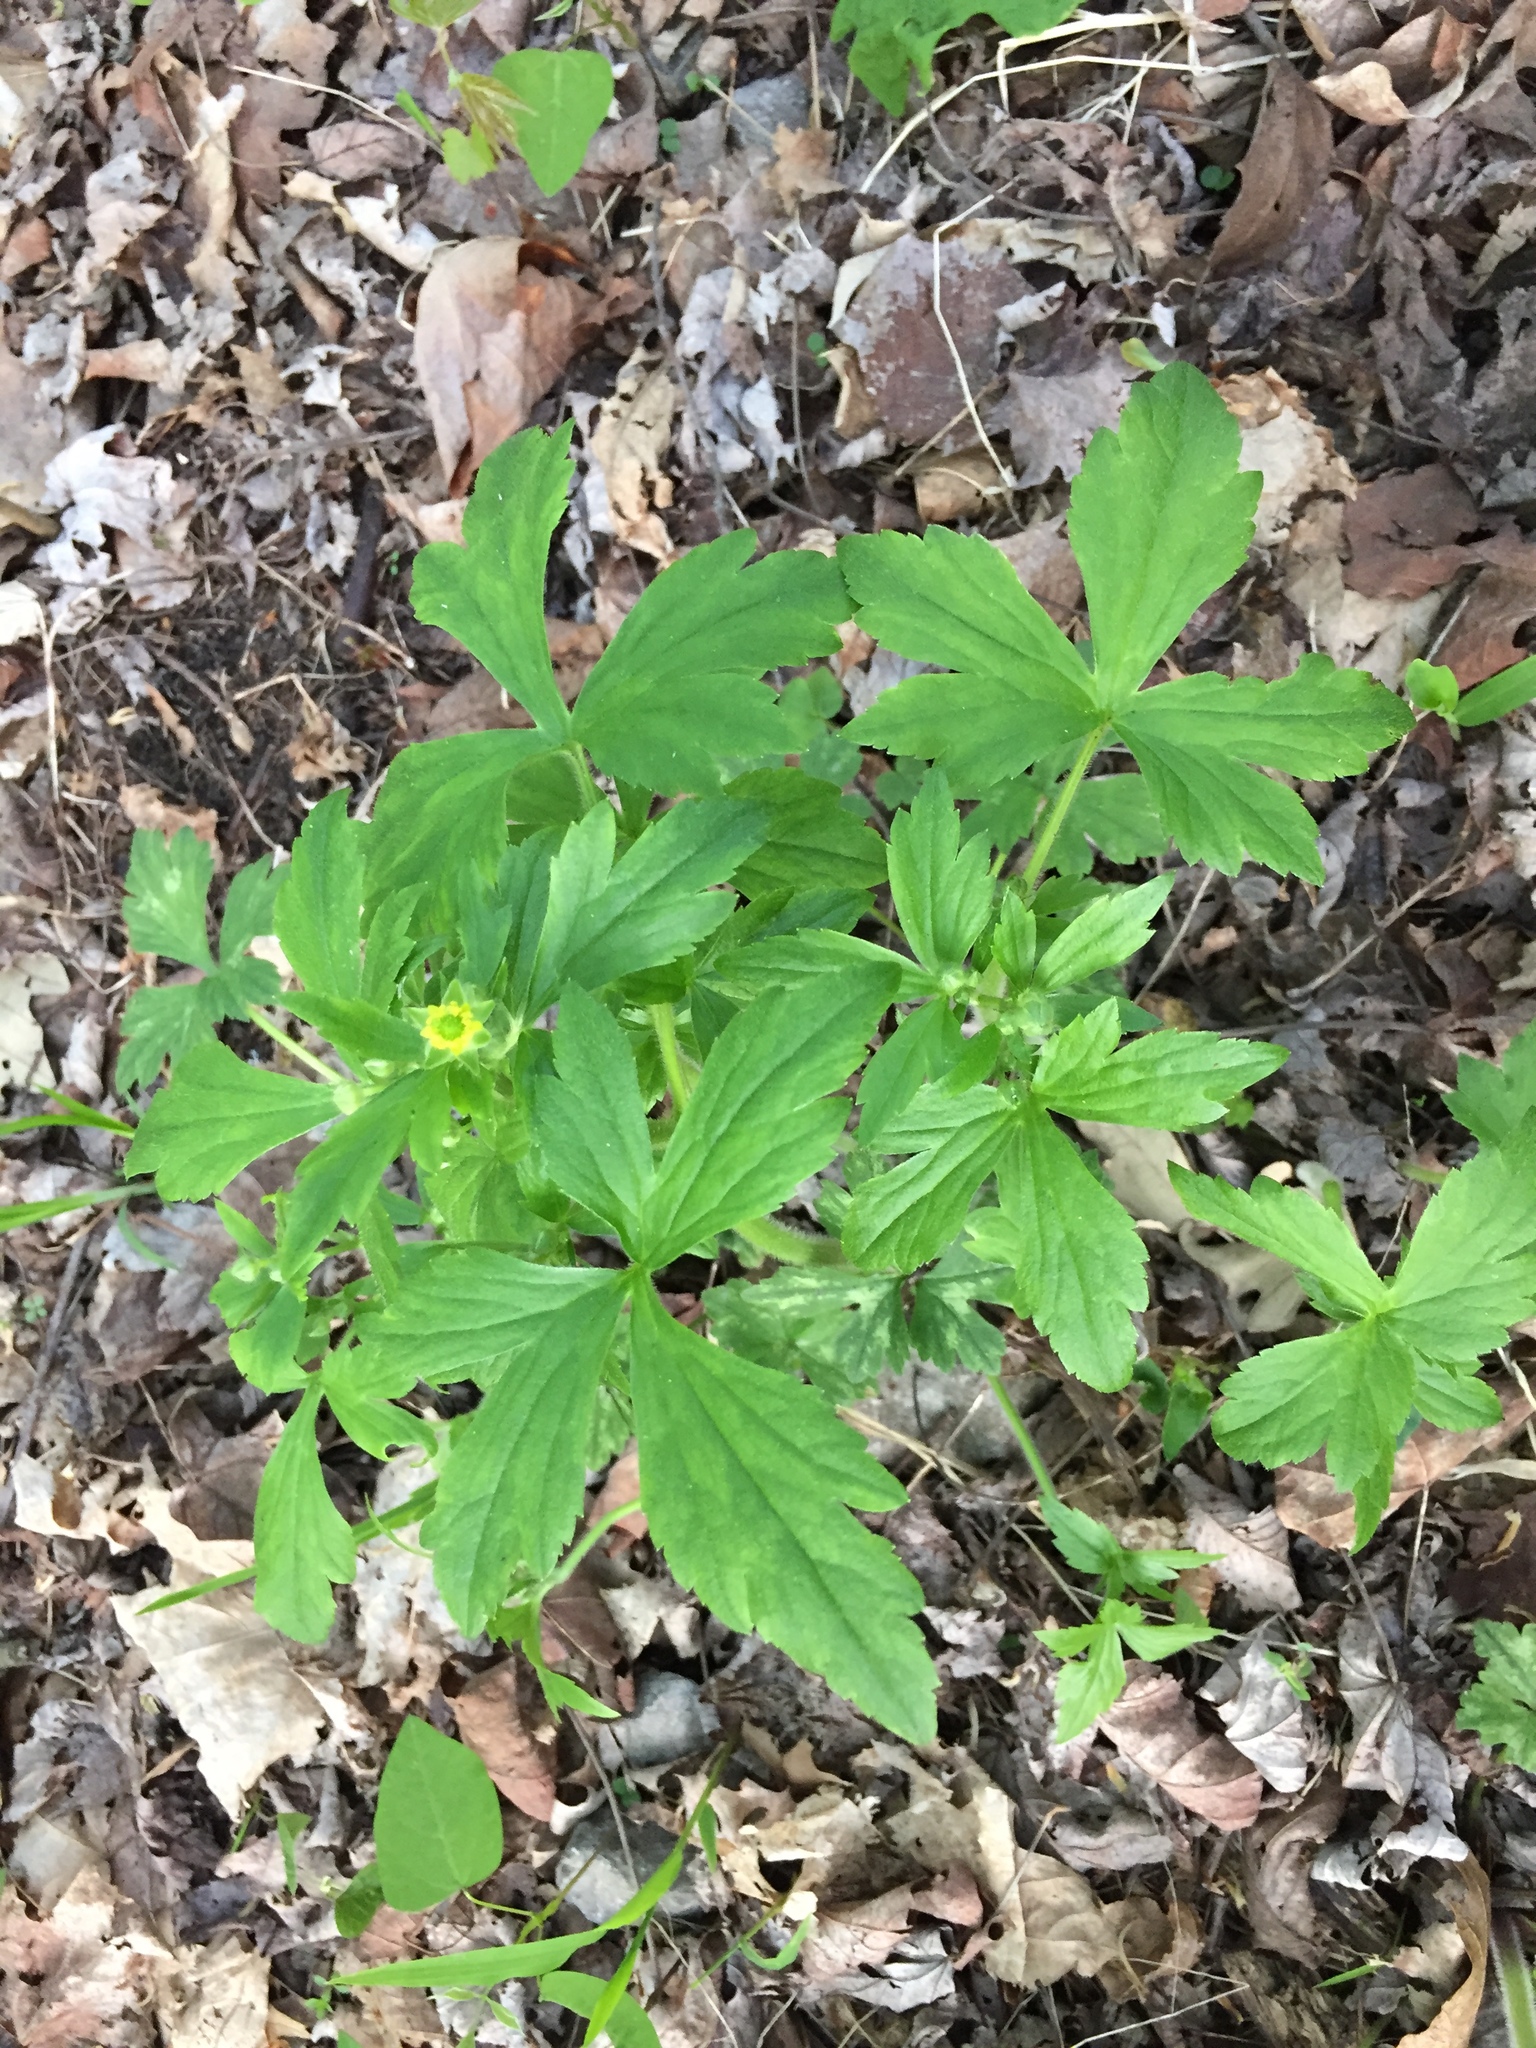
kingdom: Plantae
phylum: Tracheophyta
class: Magnoliopsida
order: Ranunculales
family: Ranunculaceae
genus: Ranunculus
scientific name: Ranunculus recurvatus
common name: Blisterwort
